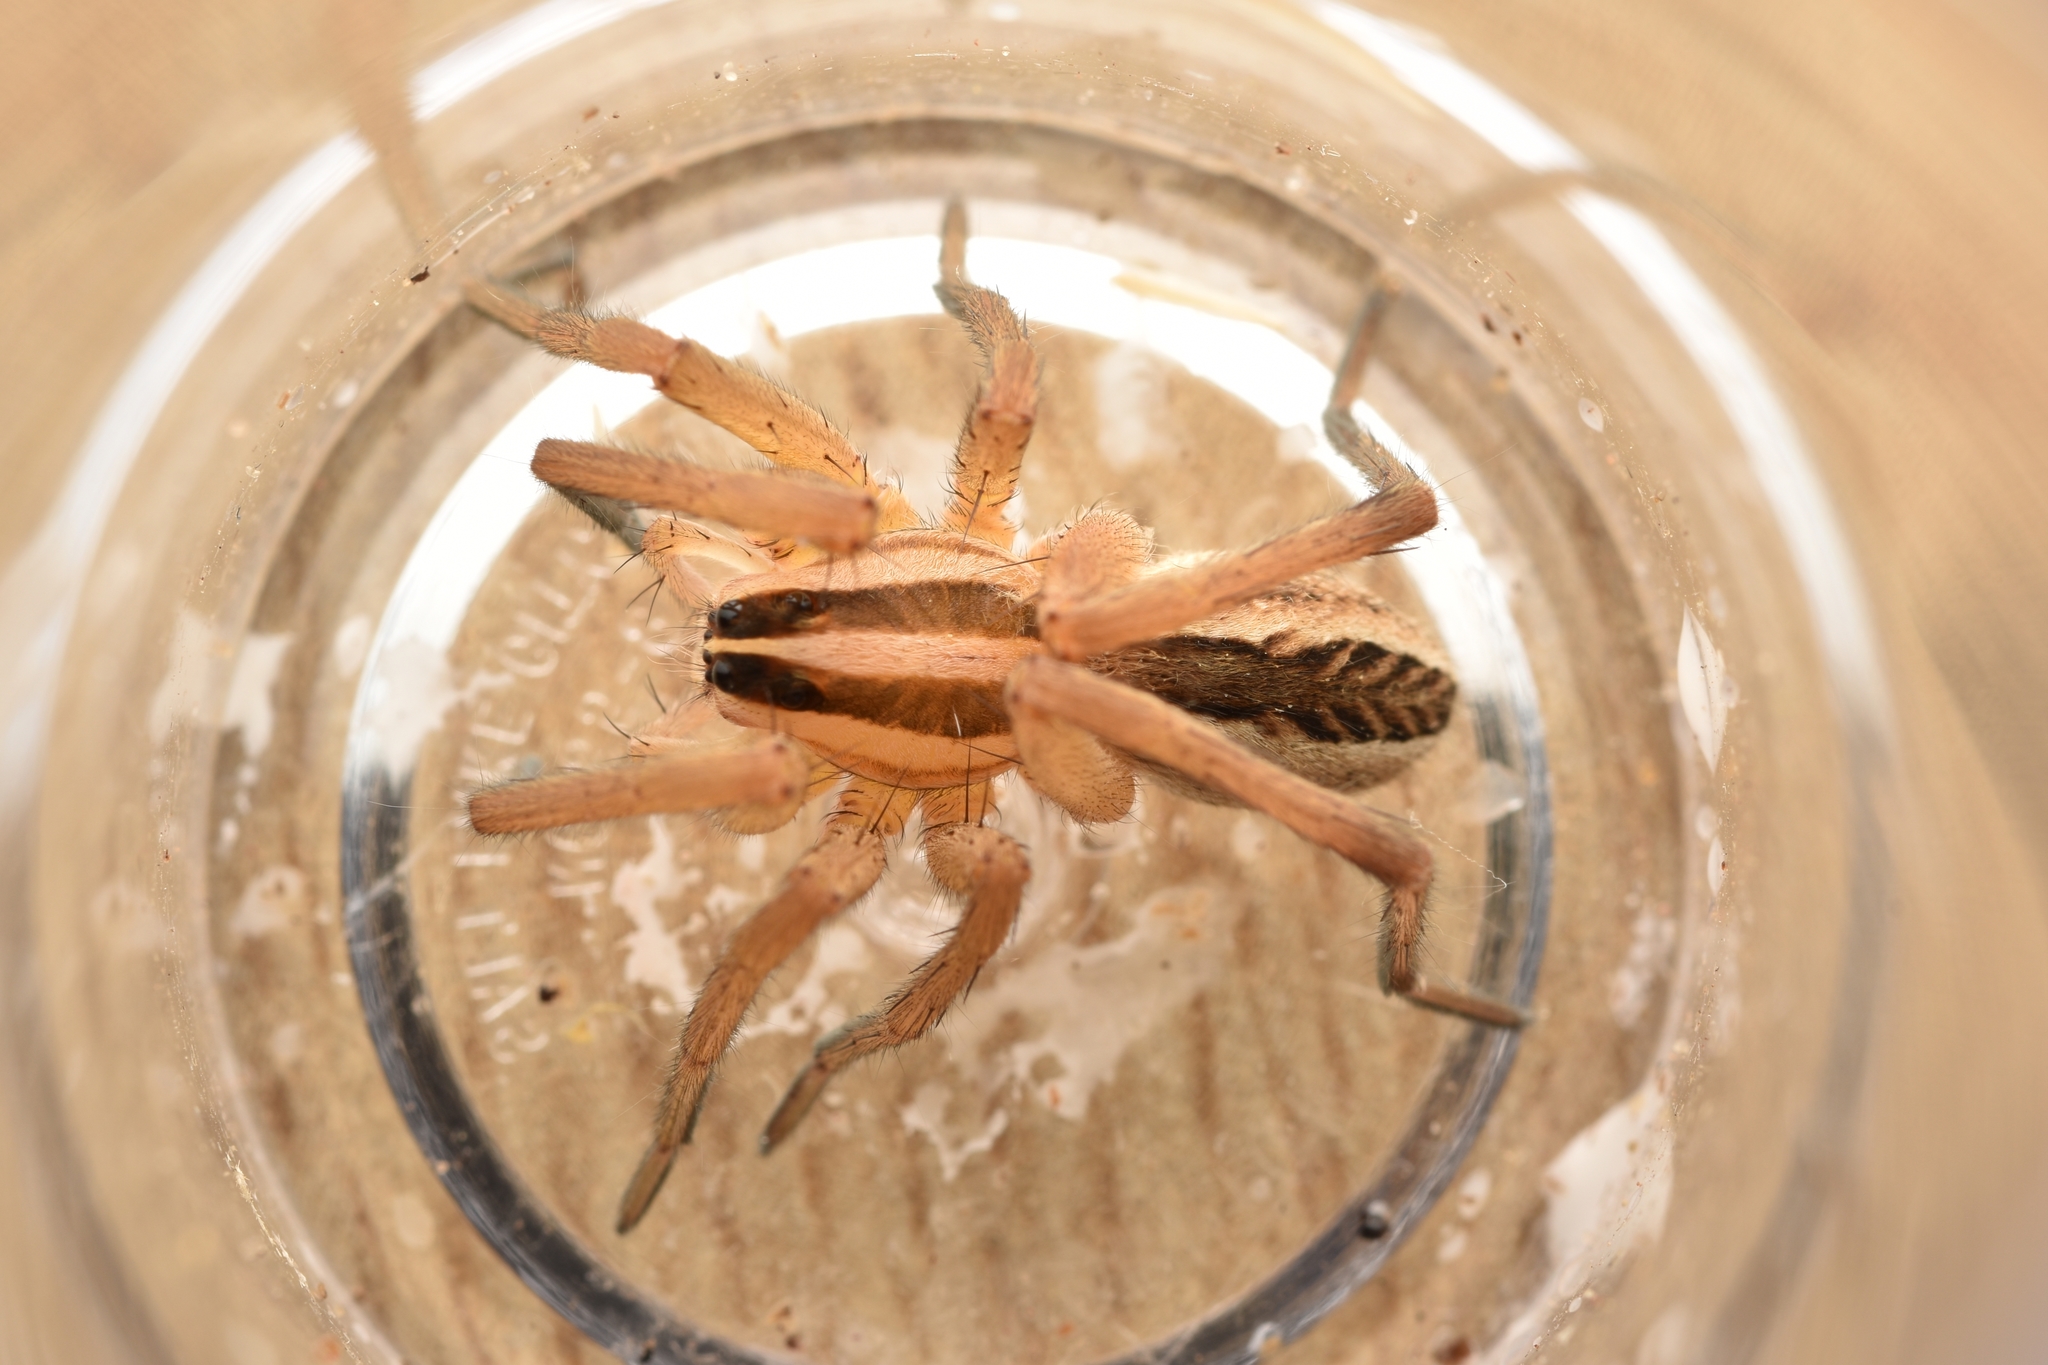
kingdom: Animalia
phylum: Arthropoda
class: Arachnida
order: Araneae
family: Lycosidae
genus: Rabidosa
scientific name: Rabidosa rabida
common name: Rabid wolf spider
